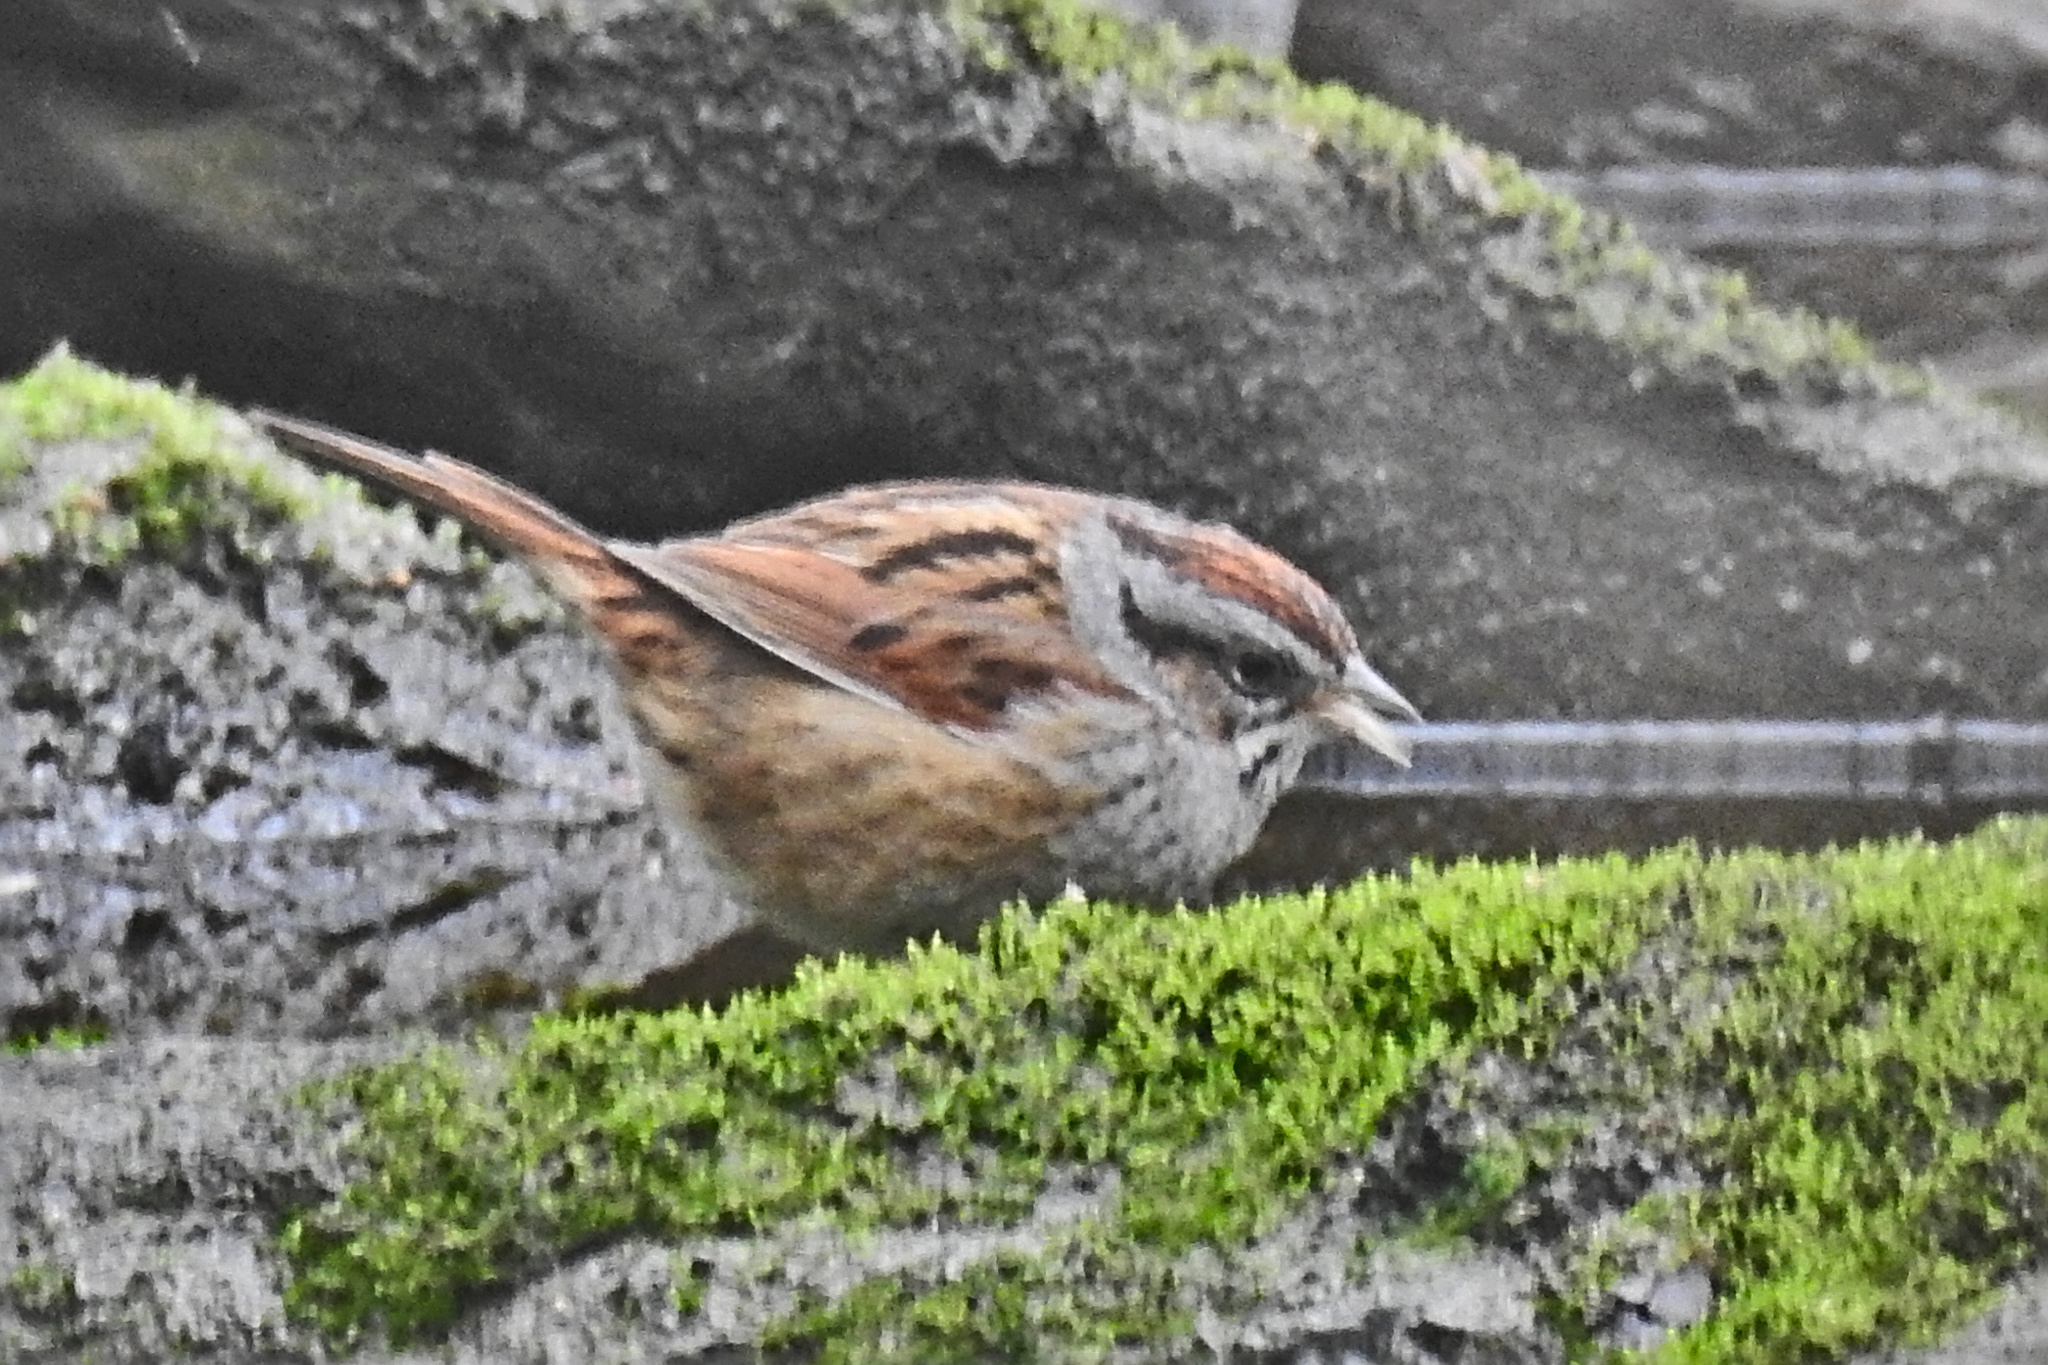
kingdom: Animalia
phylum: Chordata
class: Aves
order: Passeriformes
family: Passerellidae
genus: Melospiza
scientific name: Melospiza georgiana
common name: Swamp sparrow
